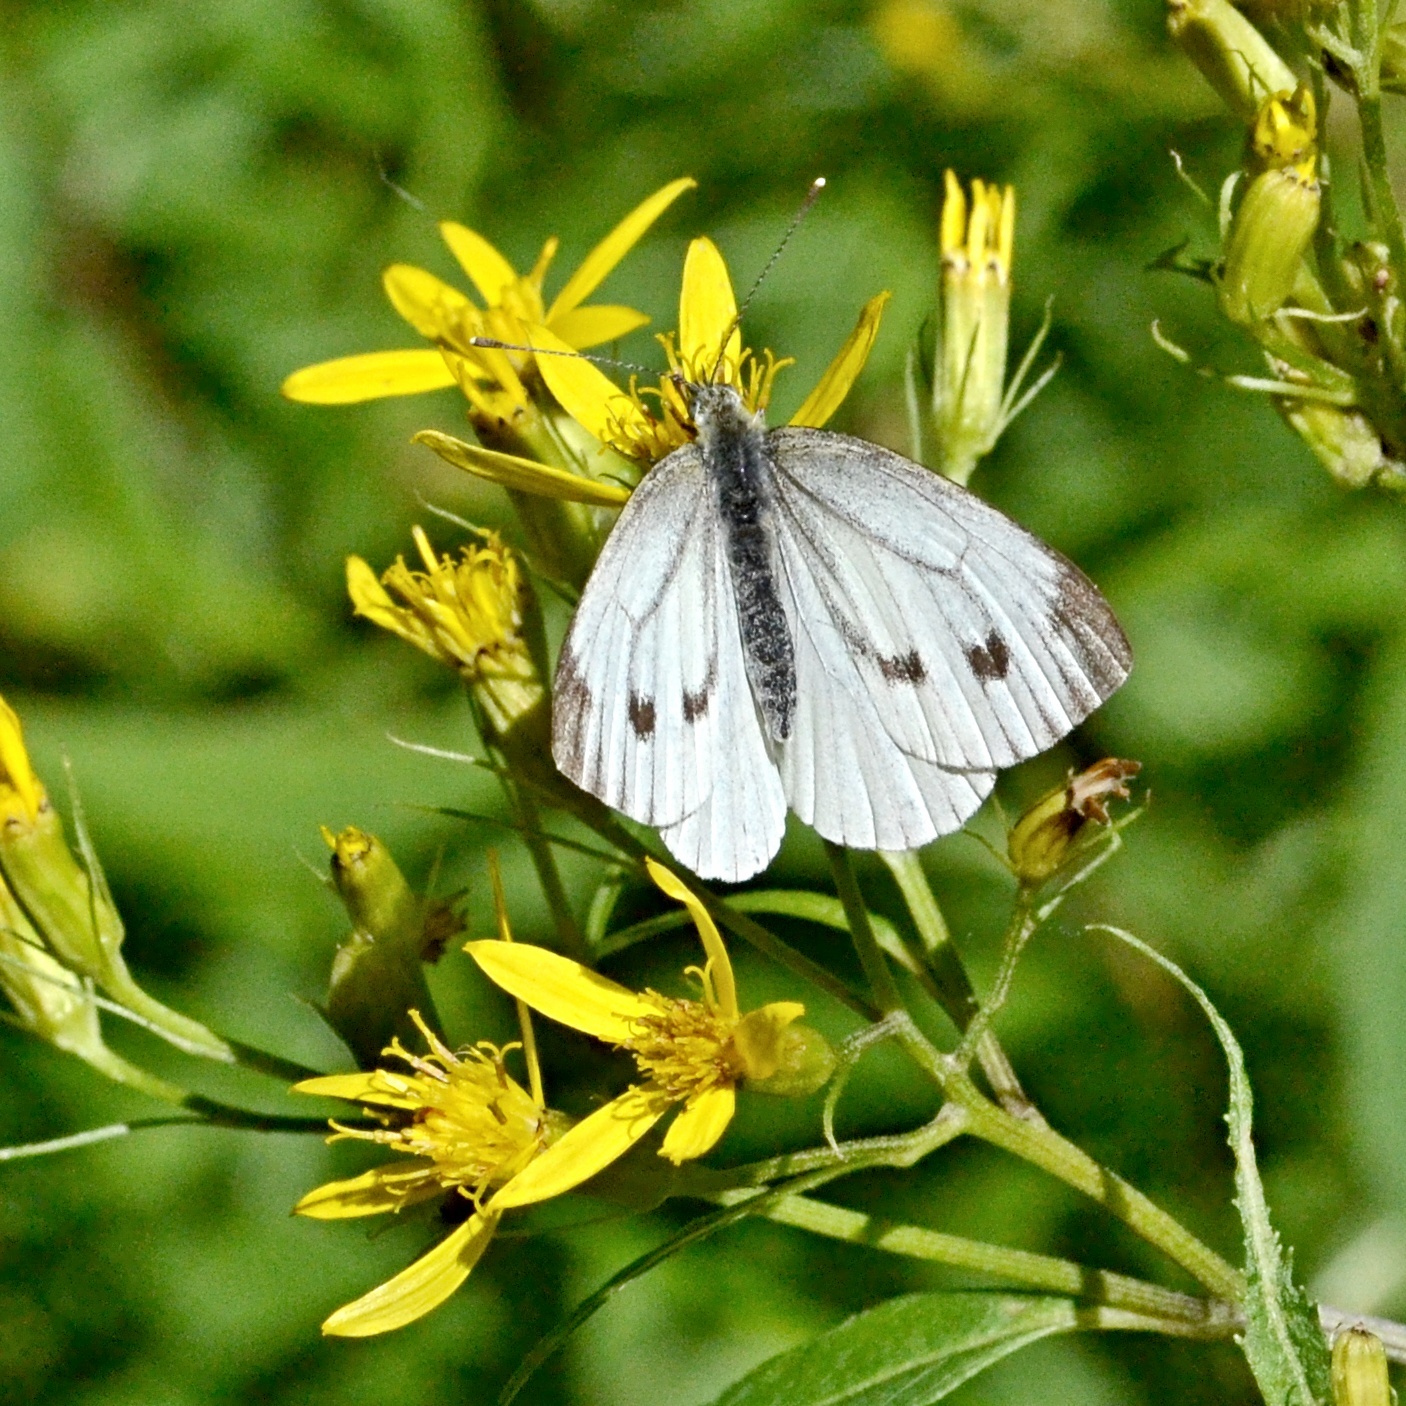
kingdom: Animalia
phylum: Arthropoda
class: Insecta
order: Lepidoptera
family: Pieridae
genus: Pieris
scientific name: Pieris napi
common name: Green-veined white
